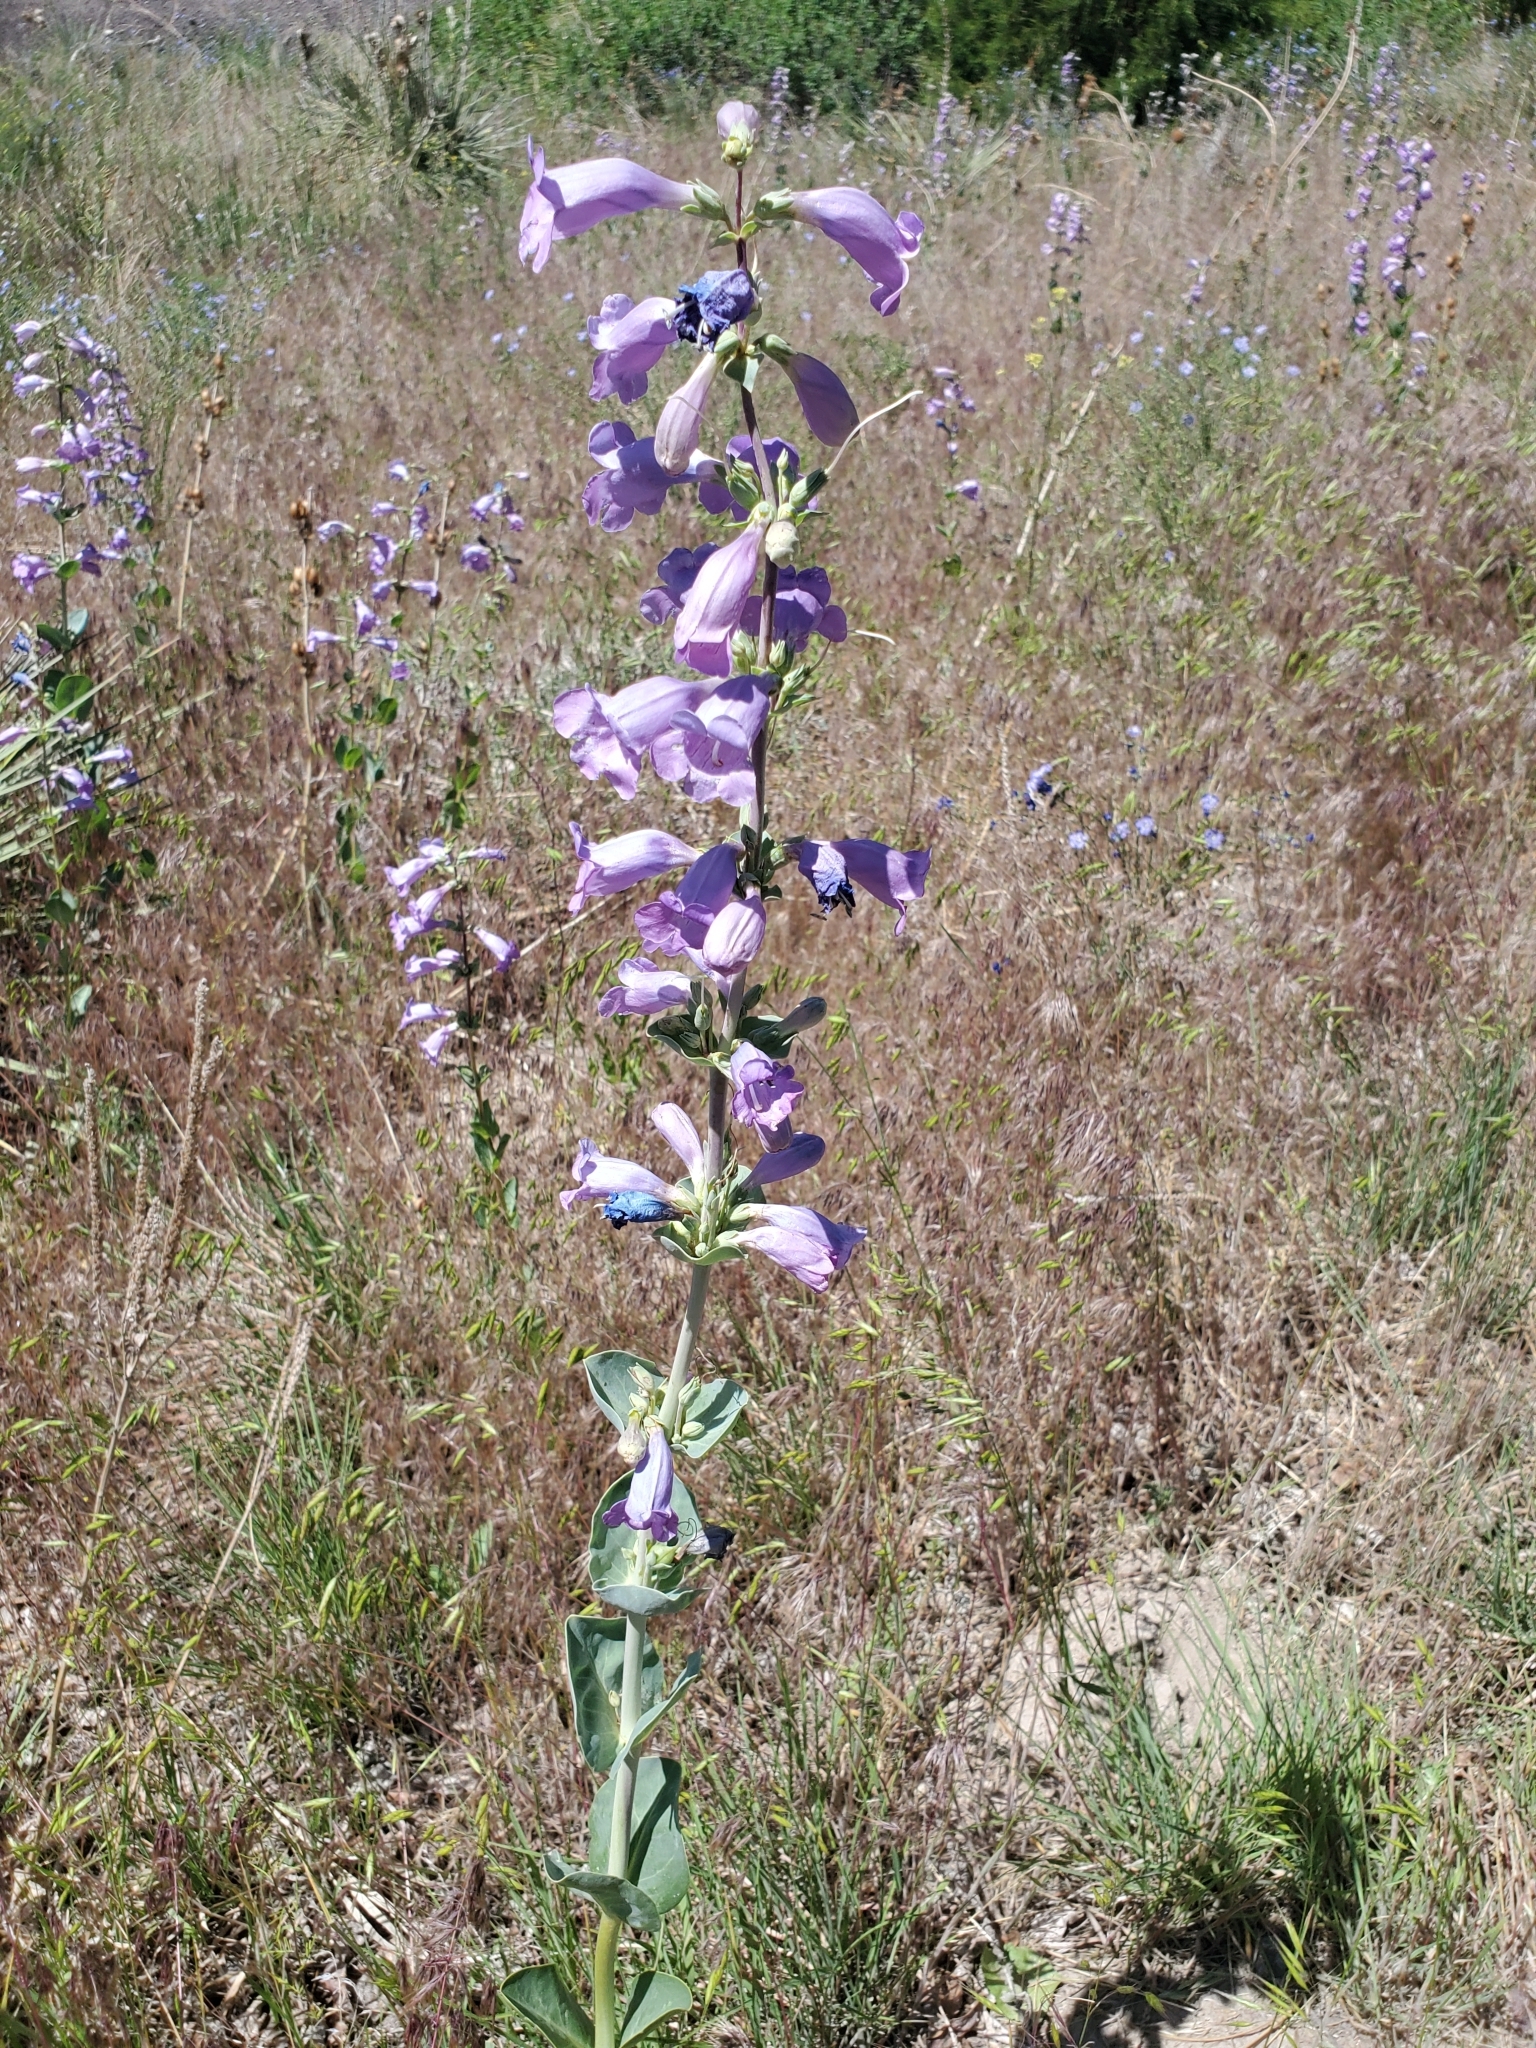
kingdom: Plantae
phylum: Tracheophyta
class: Magnoliopsida
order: Lamiales
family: Plantaginaceae
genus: Penstemon
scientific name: Penstemon
